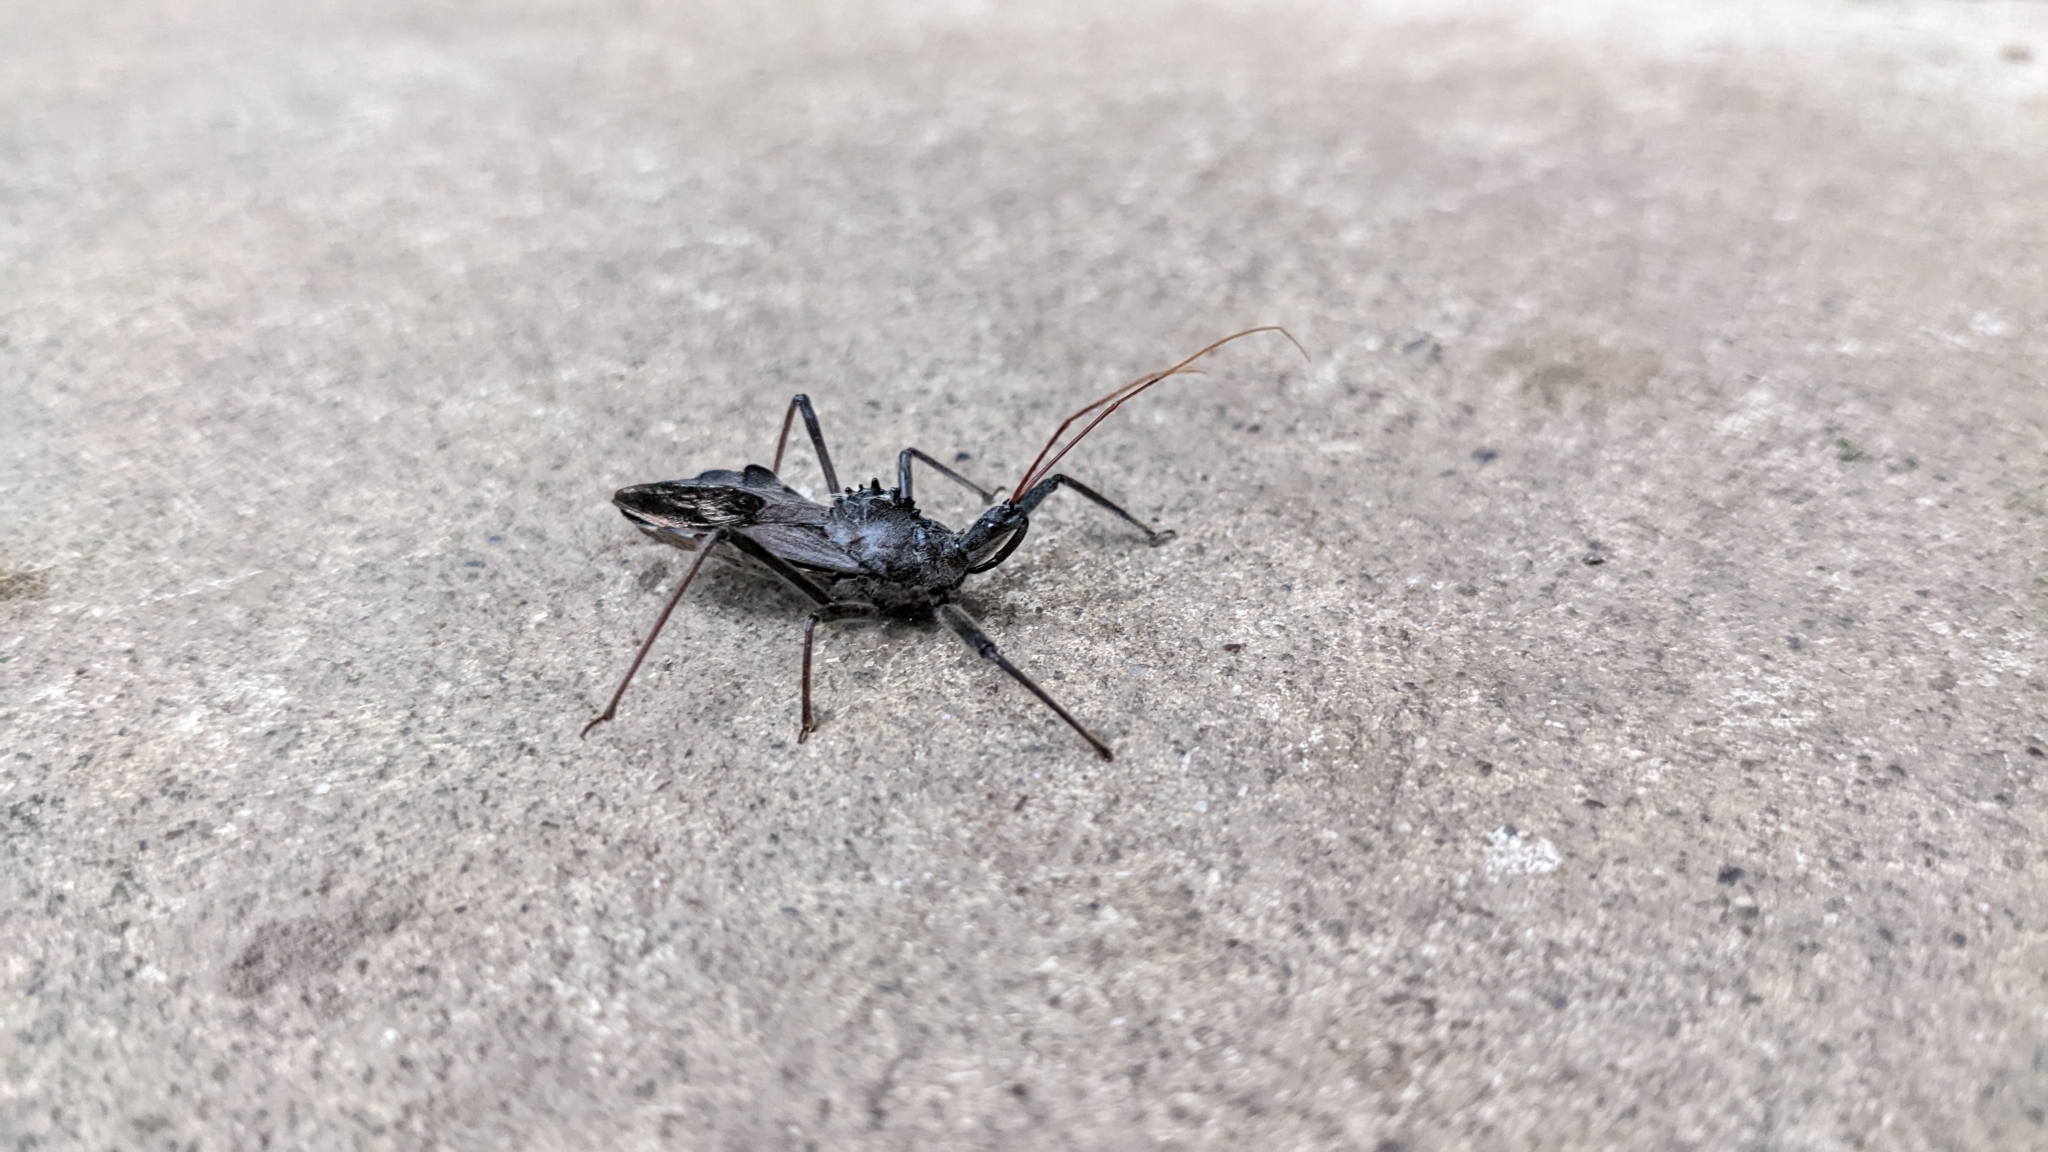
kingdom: Animalia
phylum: Arthropoda
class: Insecta
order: Hemiptera
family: Reduviidae
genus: Arilus
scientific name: Arilus cristatus
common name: North american wheel bug
